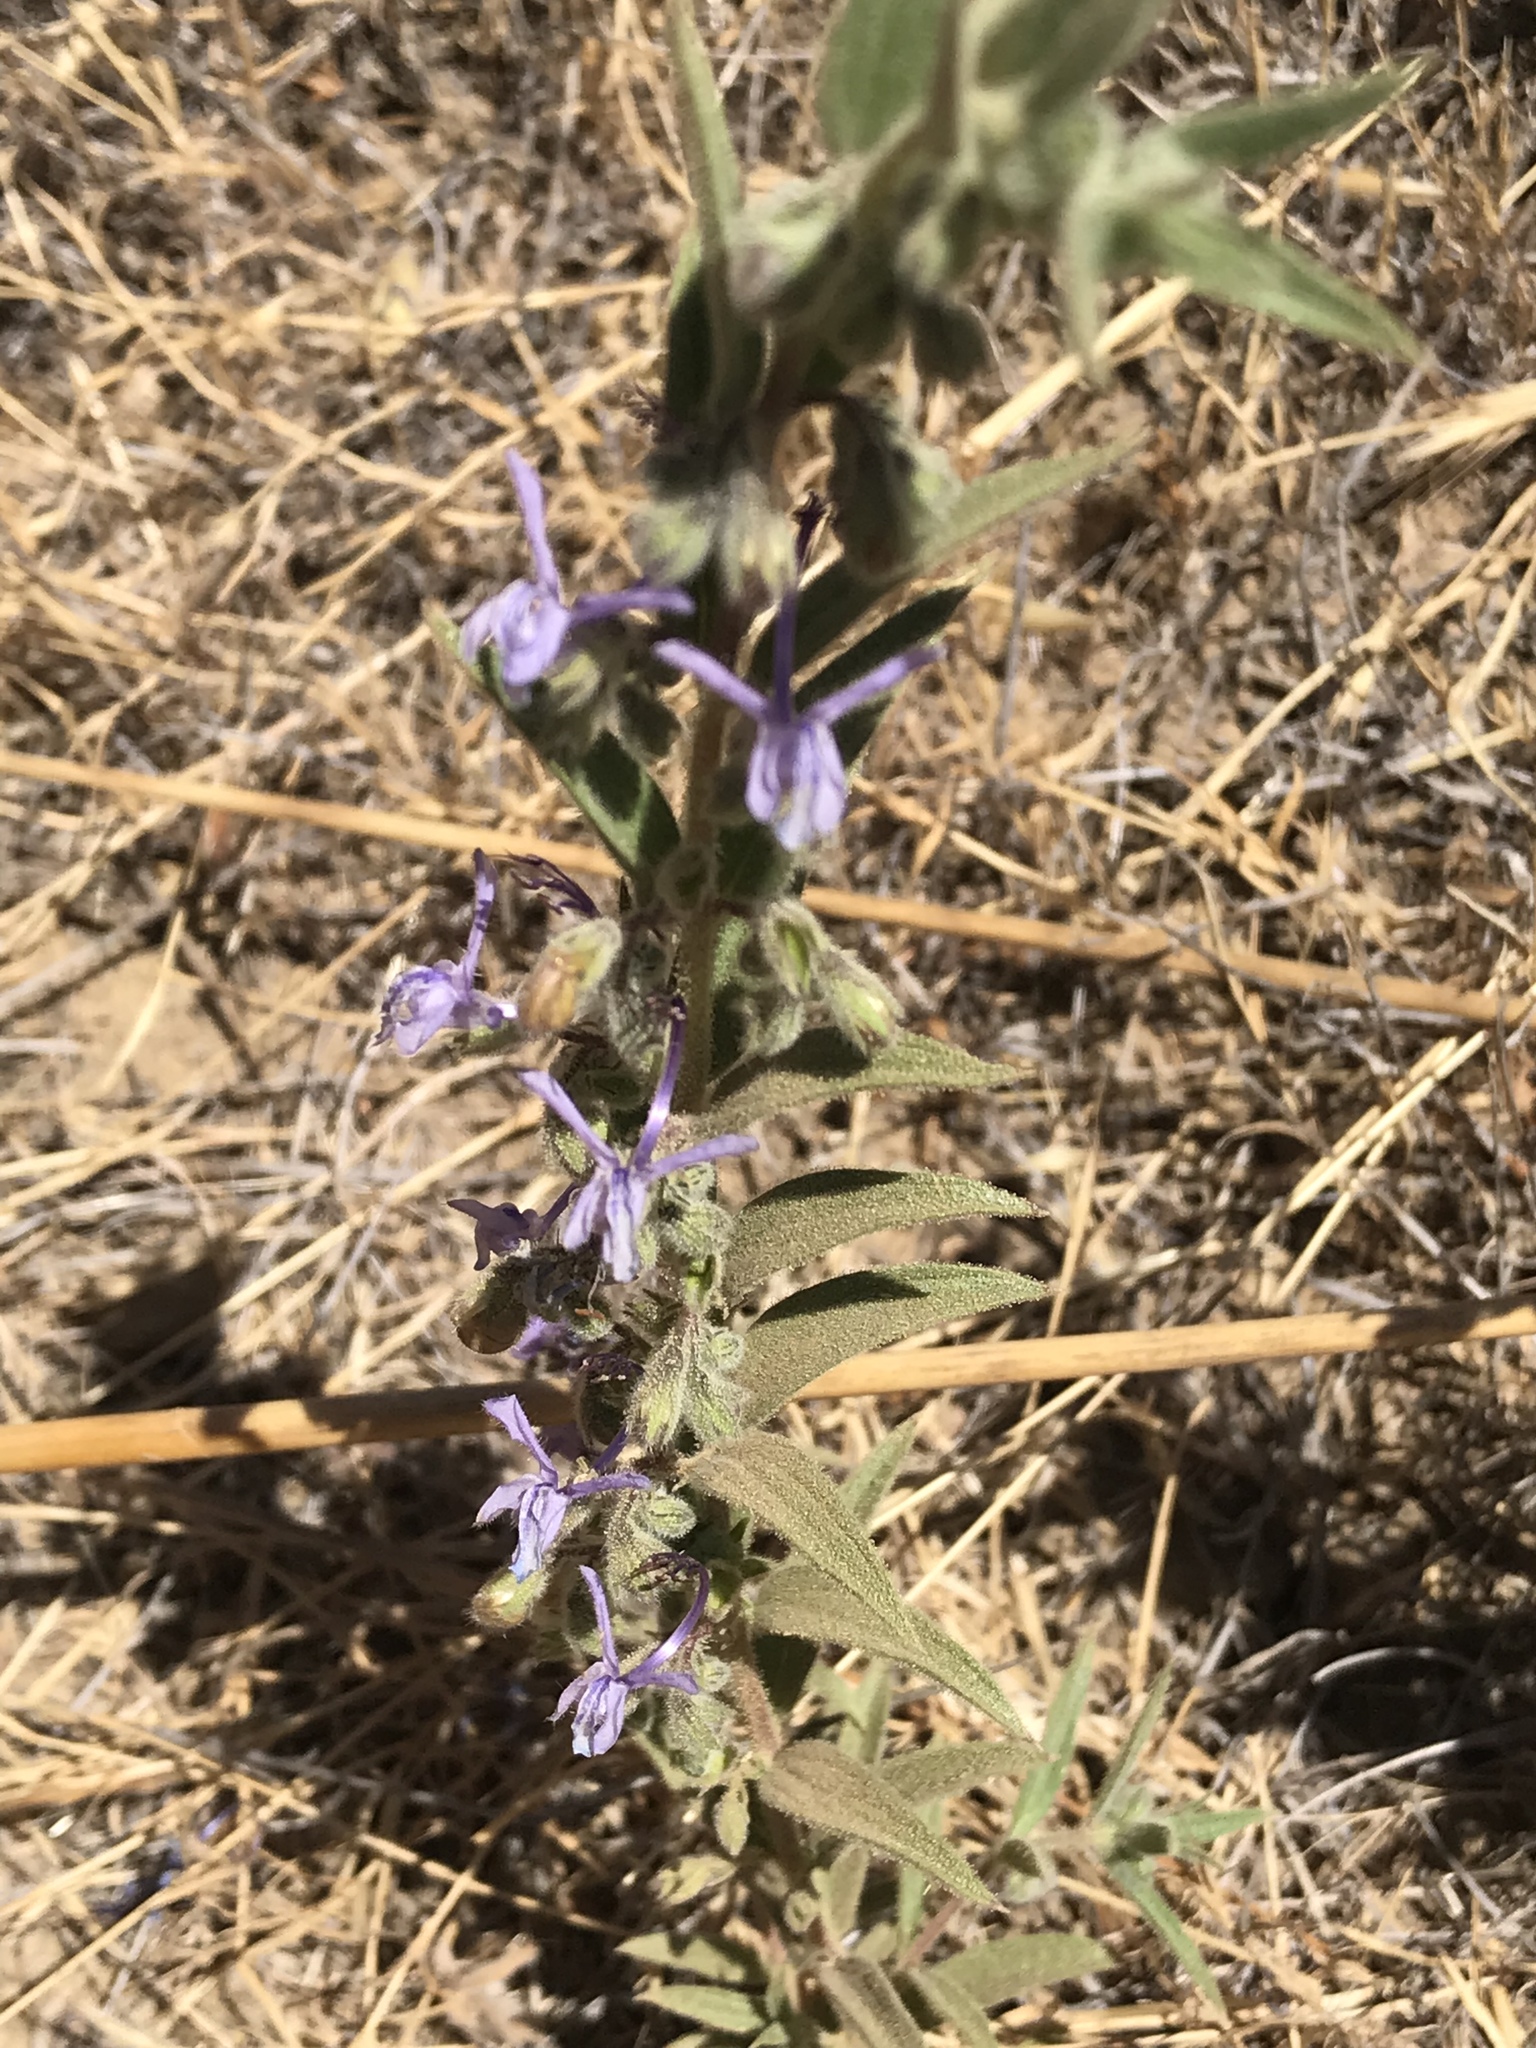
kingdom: Plantae
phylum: Tracheophyta
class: Magnoliopsida
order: Lamiales
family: Lamiaceae
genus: Trichostema
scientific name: Trichostema lanceolatum
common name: Vinegar-weed
